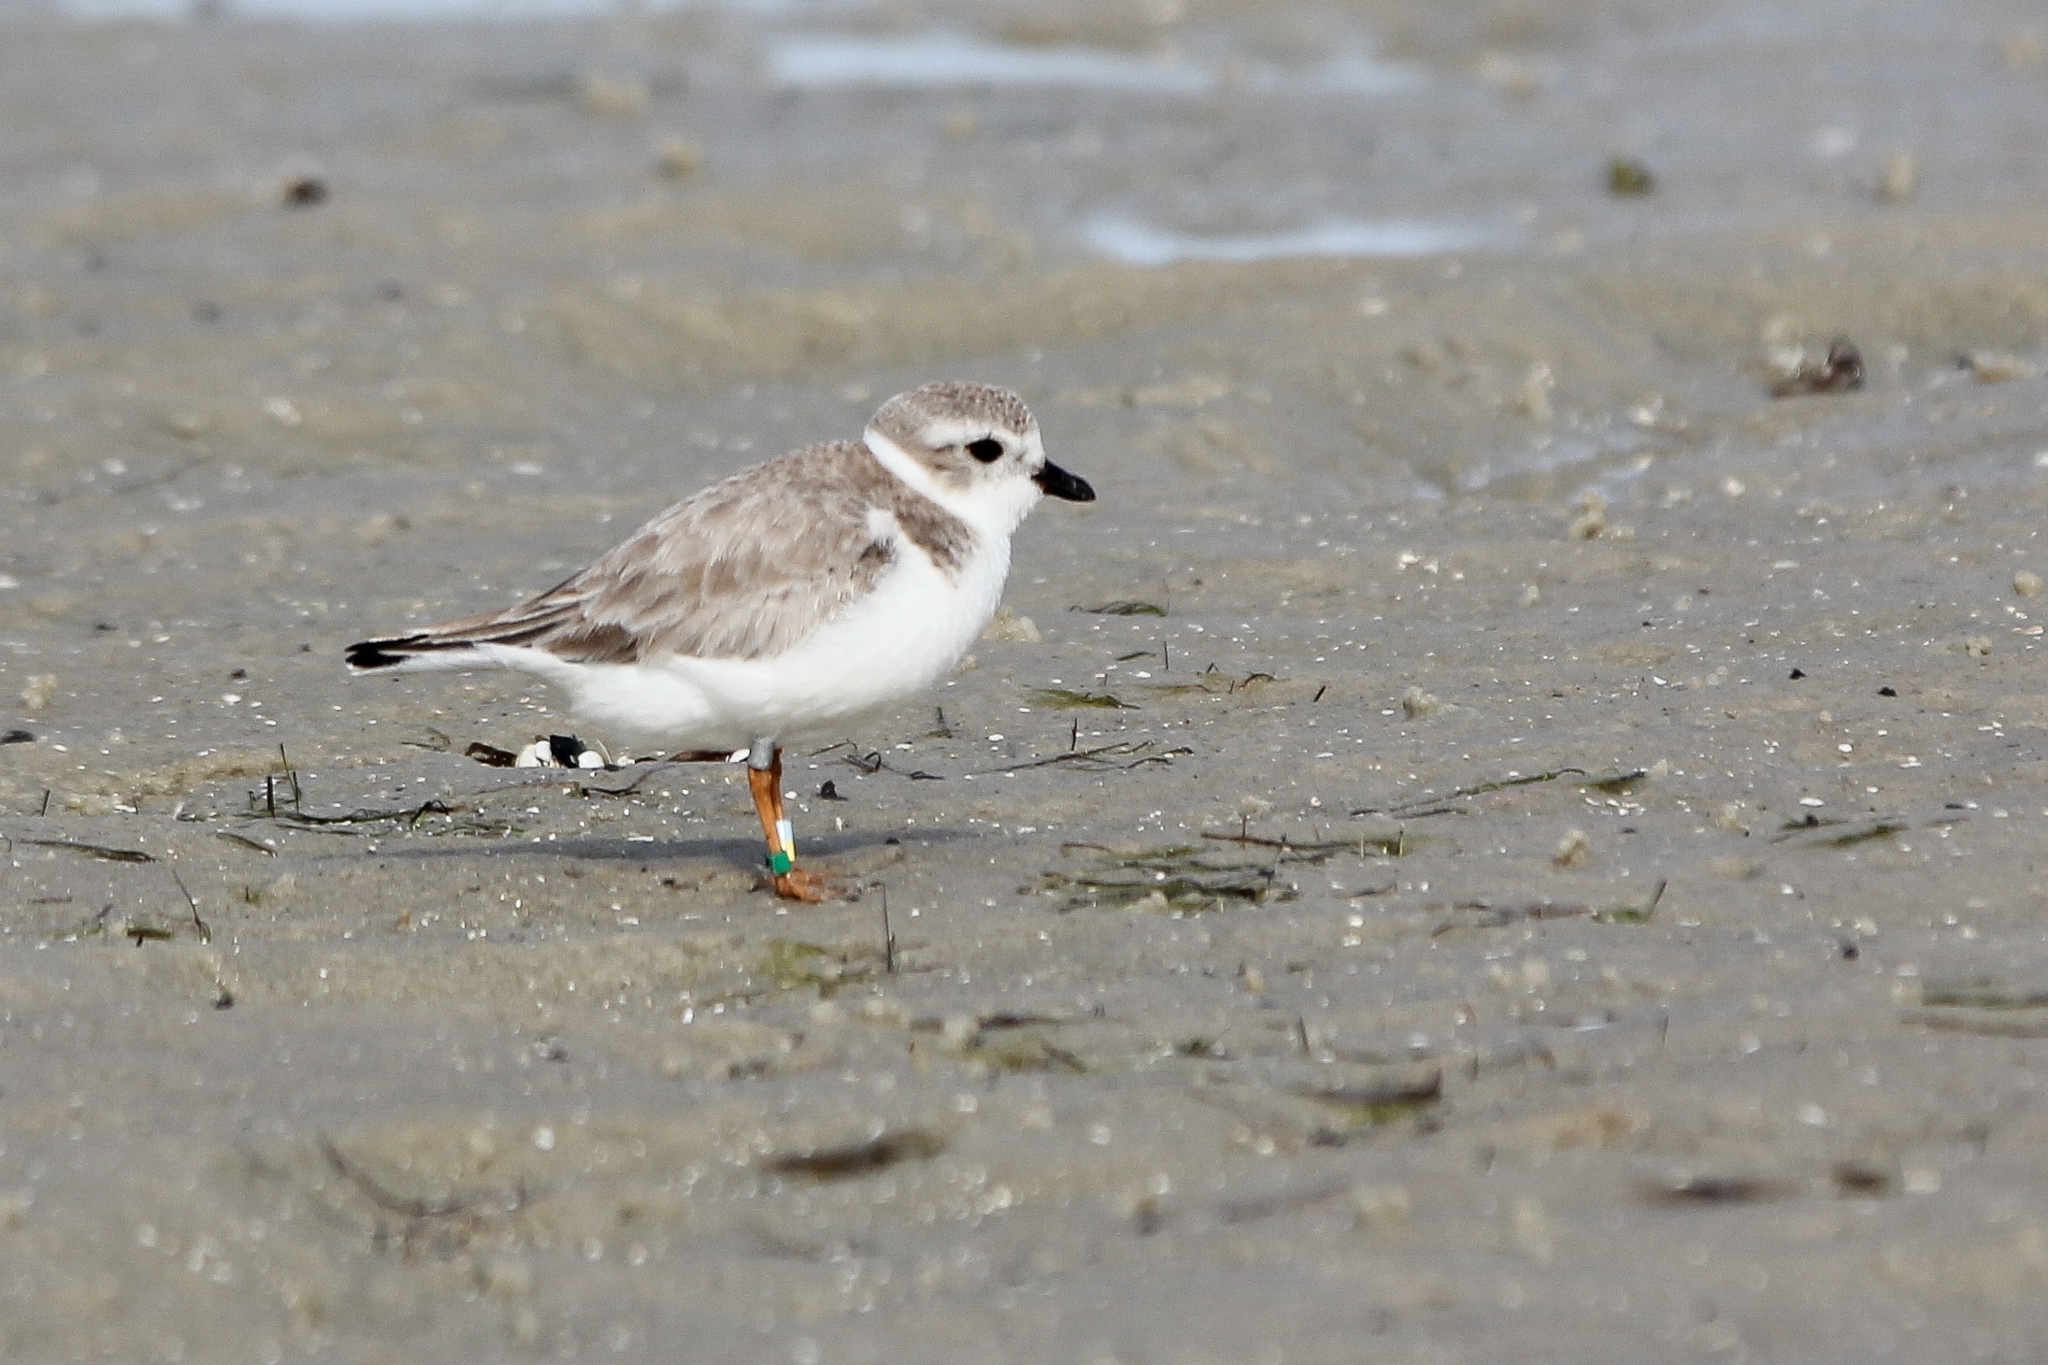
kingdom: Animalia
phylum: Chordata
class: Aves
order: Charadriiformes
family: Charadriidae
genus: Charadrius
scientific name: Charadrius melodus
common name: Piping plover
